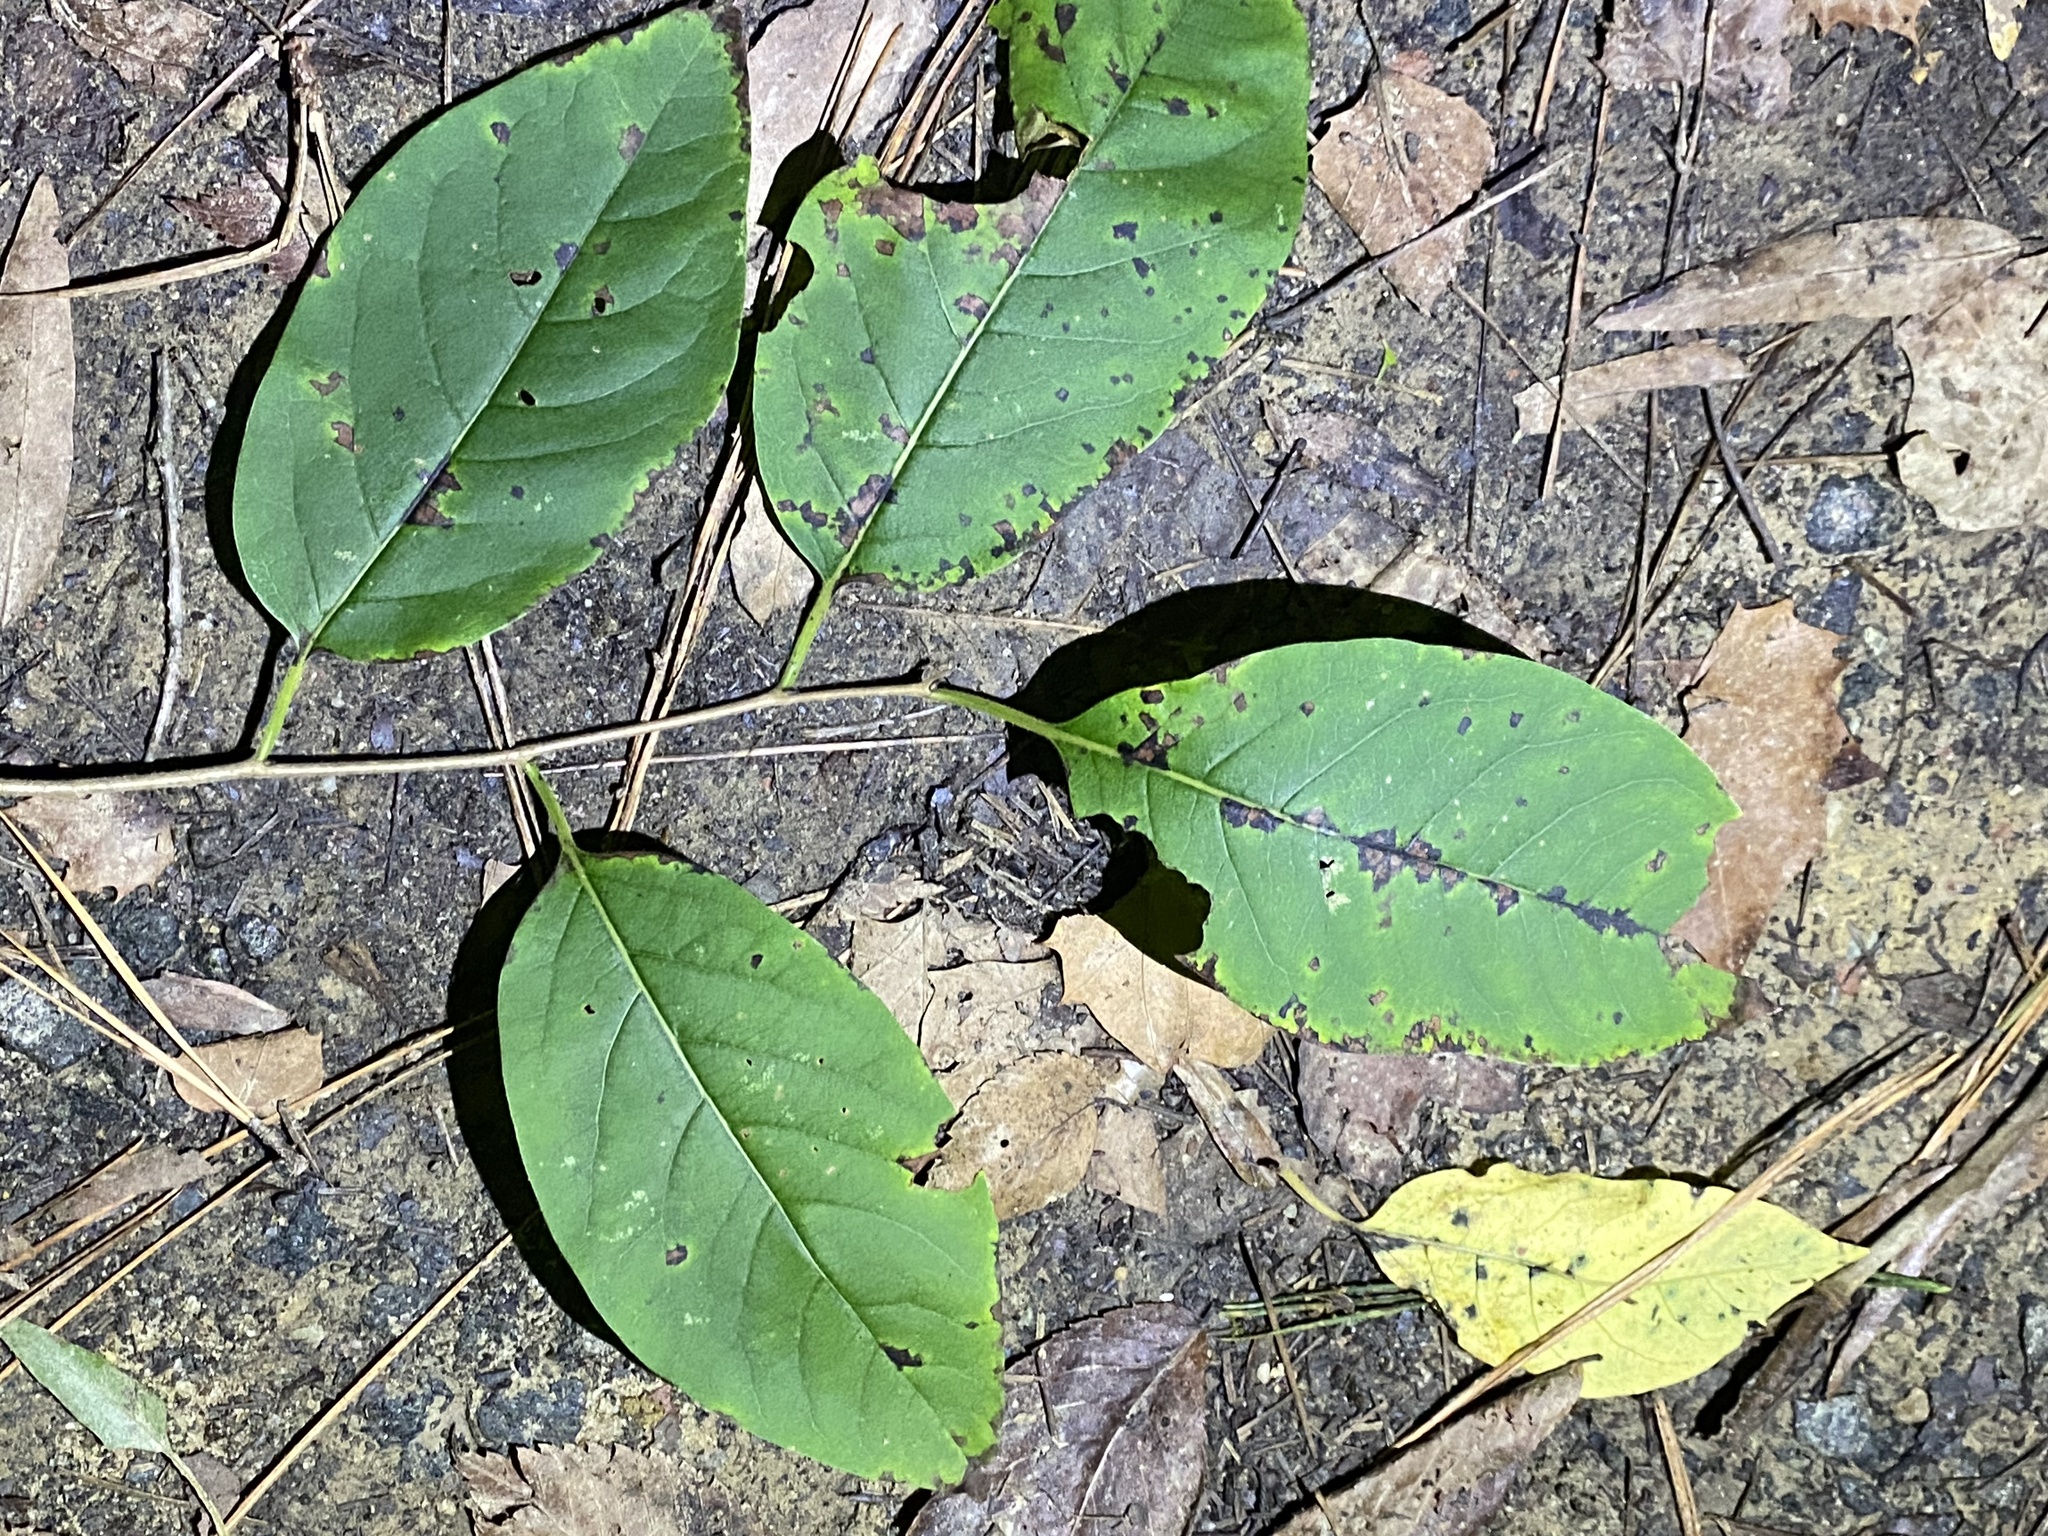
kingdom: Plantae
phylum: Tracheophyta
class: Magnoliopsida
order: Ericales
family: Ebenaceae
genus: Diospyros
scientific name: Diospyros virginiana
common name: Persimmon
